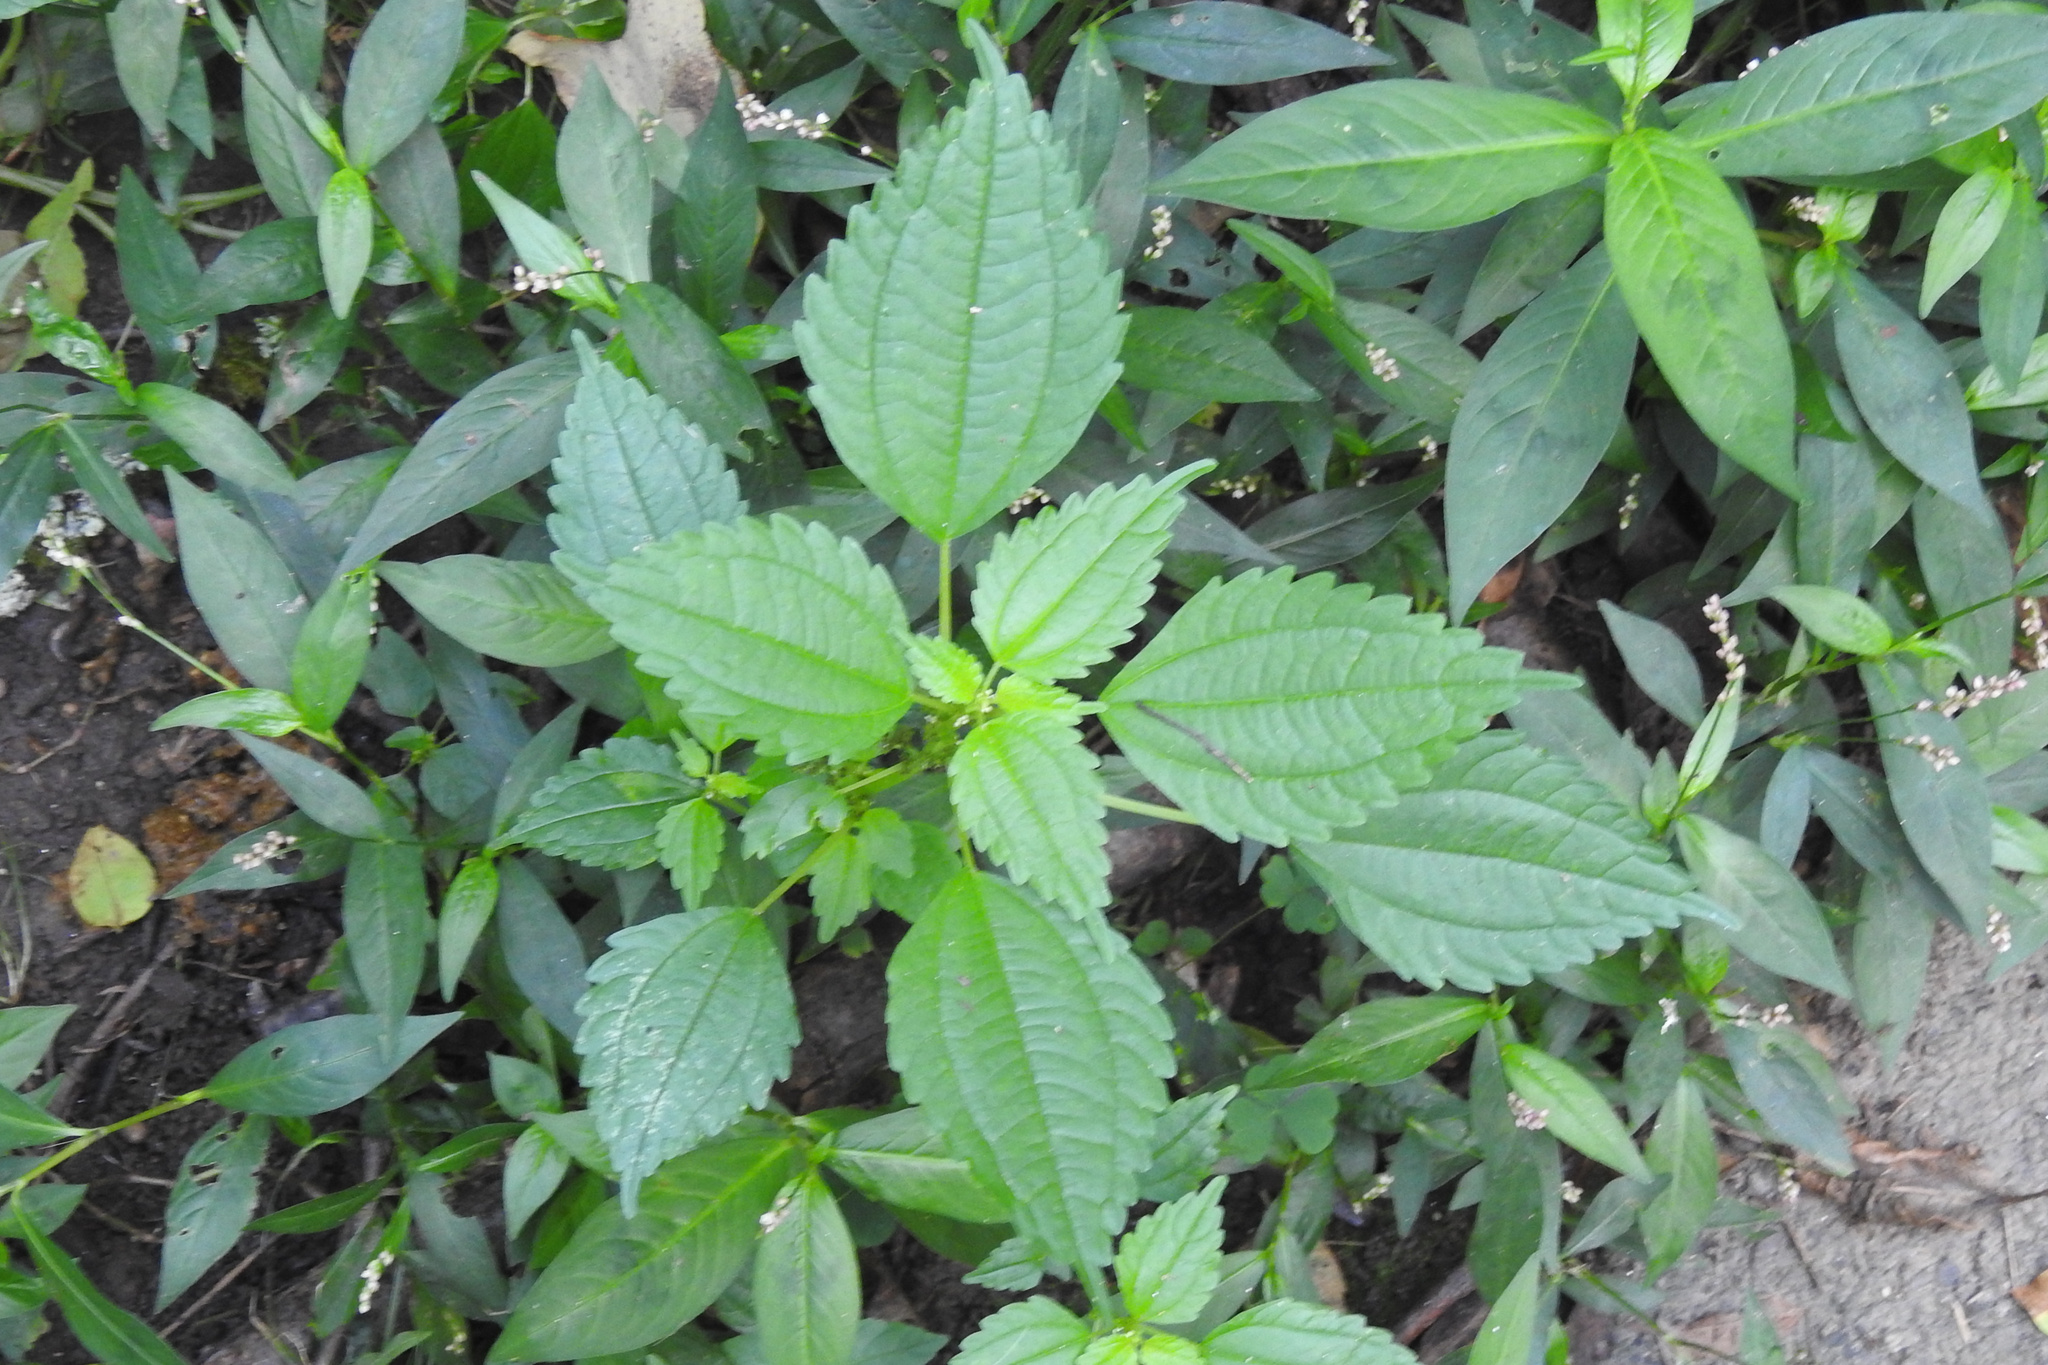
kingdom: Plantae
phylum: Tracheophyta
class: Magnoliopsida
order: Rosales
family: Urticaceae
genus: Pilea
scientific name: Pilea pumila
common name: Clearweed
